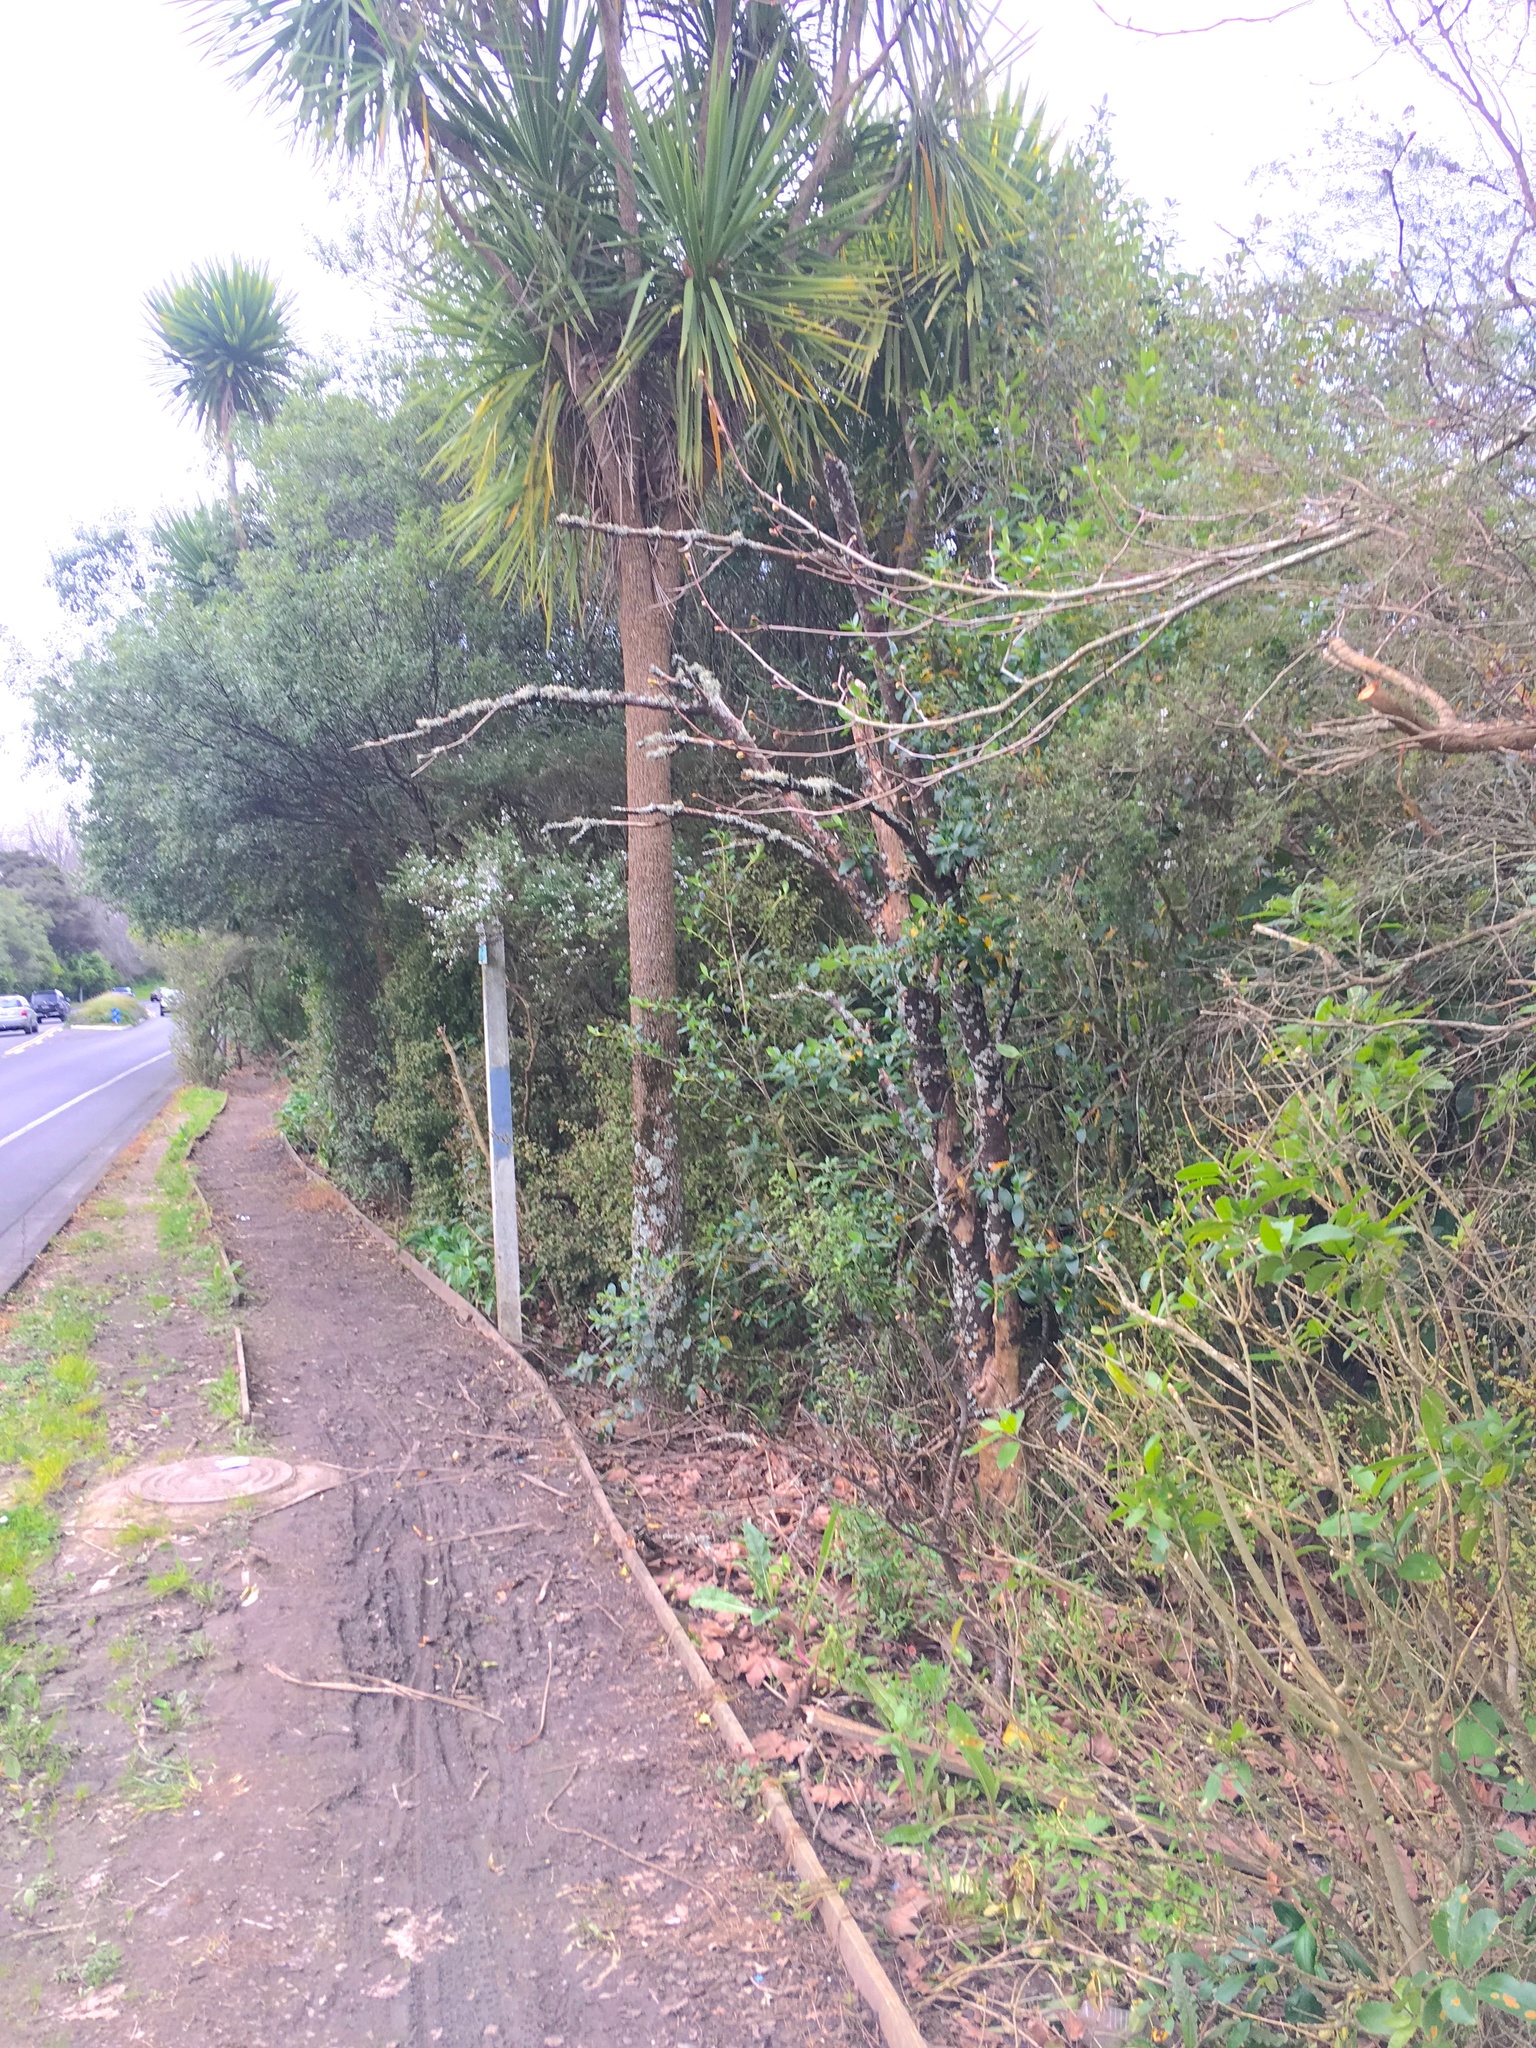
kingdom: Plantae
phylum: Tracheophyta
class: Liliopsida
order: Asparagales
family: Asparagaceae
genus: Cordyline
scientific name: Cordyline australis
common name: Cabbage-palm
